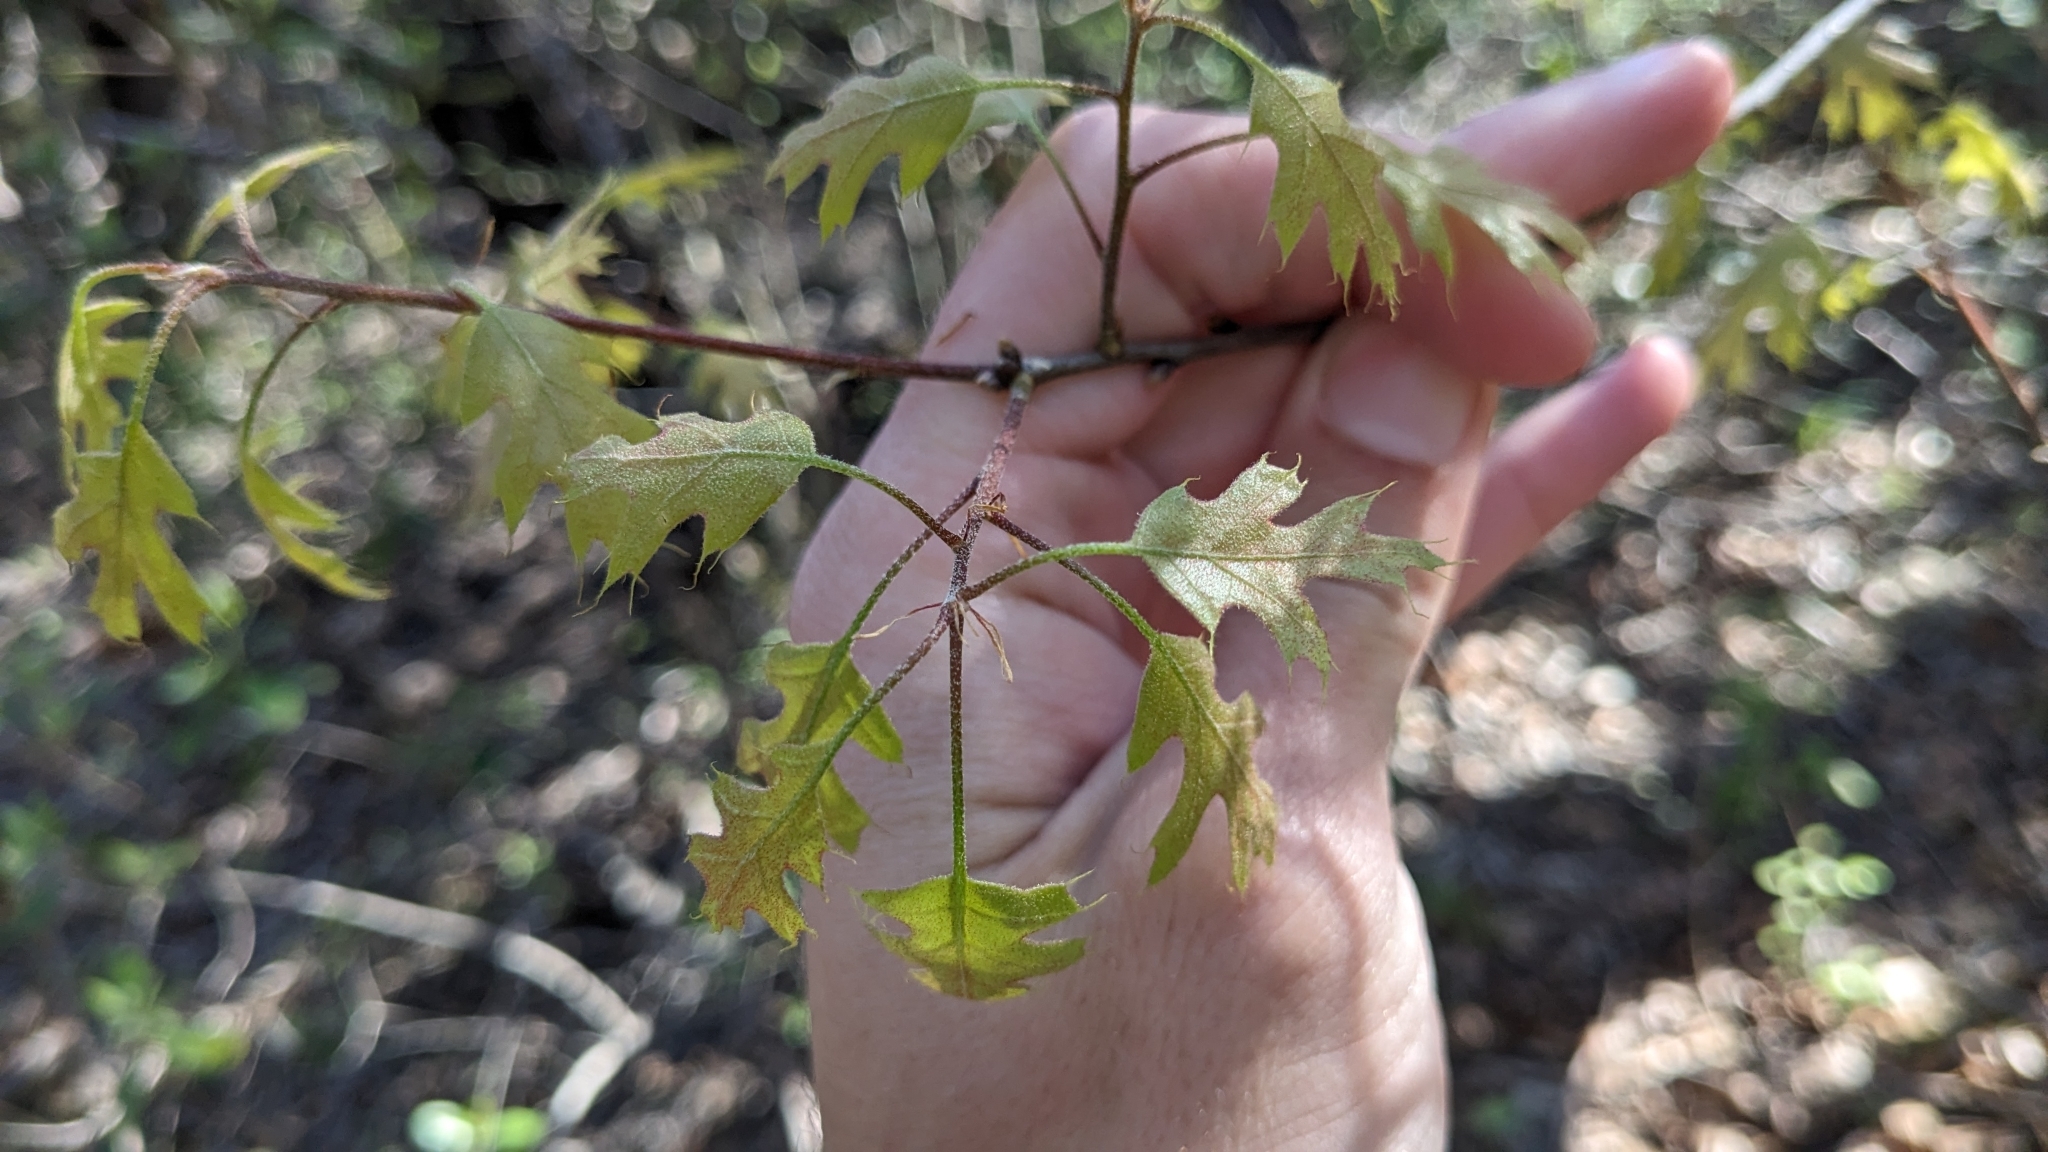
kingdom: Plantae
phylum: Tracheophyta
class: Magnoliopsida
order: Fagales
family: Fagaceae
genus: Quercus
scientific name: Quercus buckleyi
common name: Buckley oak
